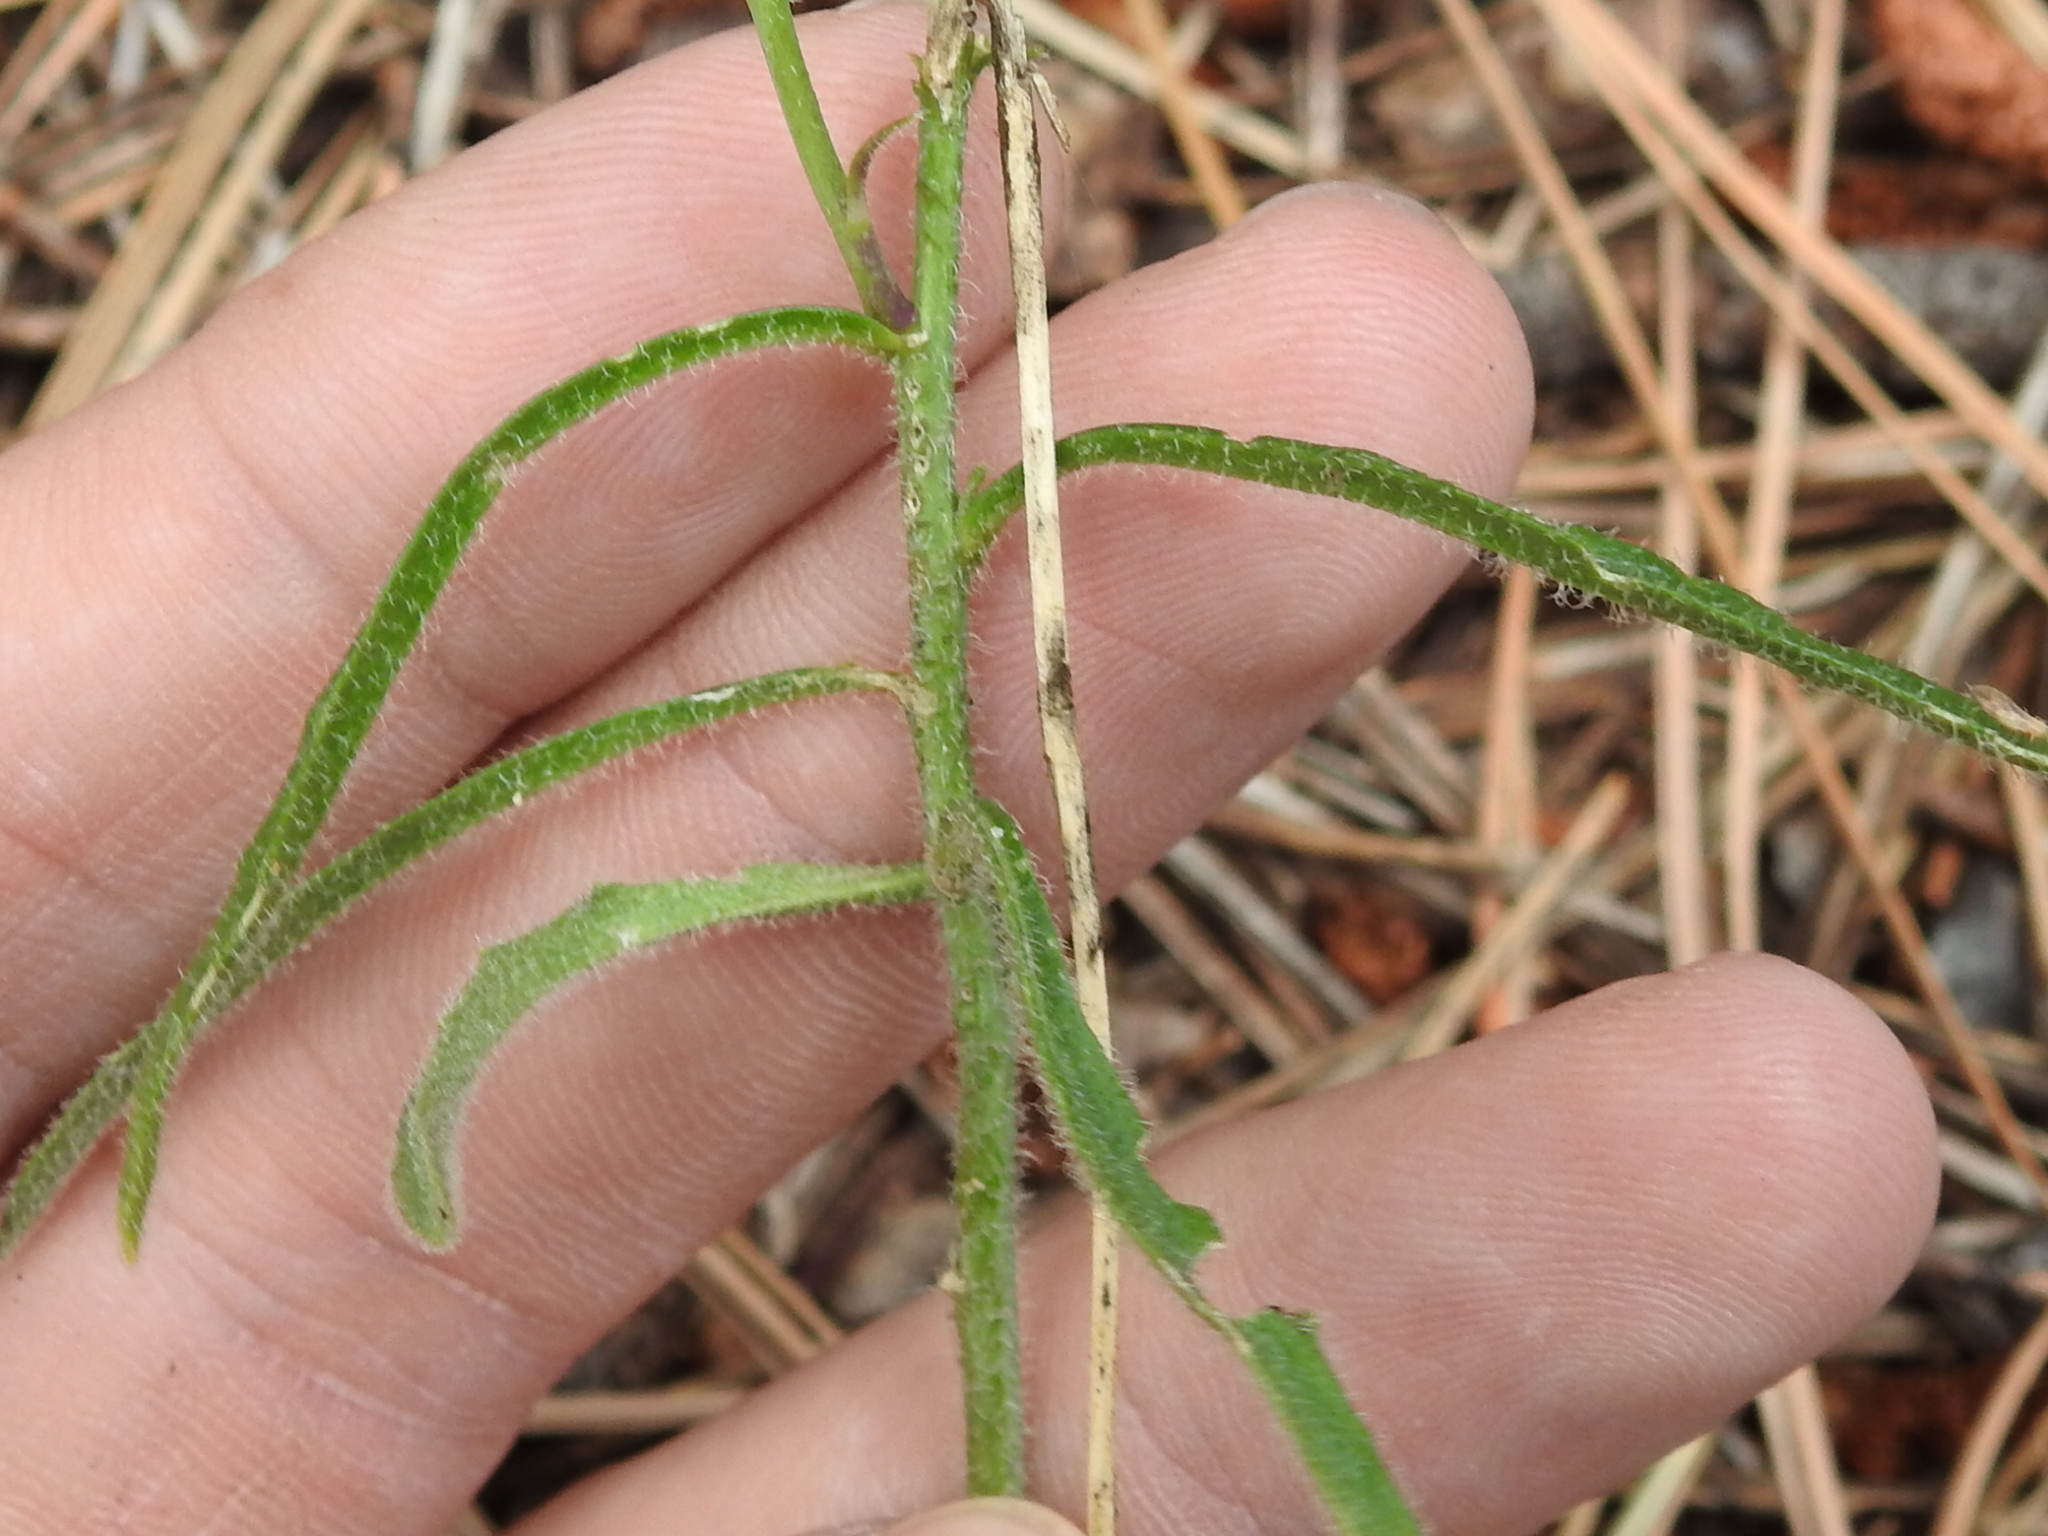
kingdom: Plantae
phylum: Tracheophyta
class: Magnoliopsida
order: Brassicales
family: Brassicaceae
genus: Pennellia
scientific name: Pennellia tricornuta
